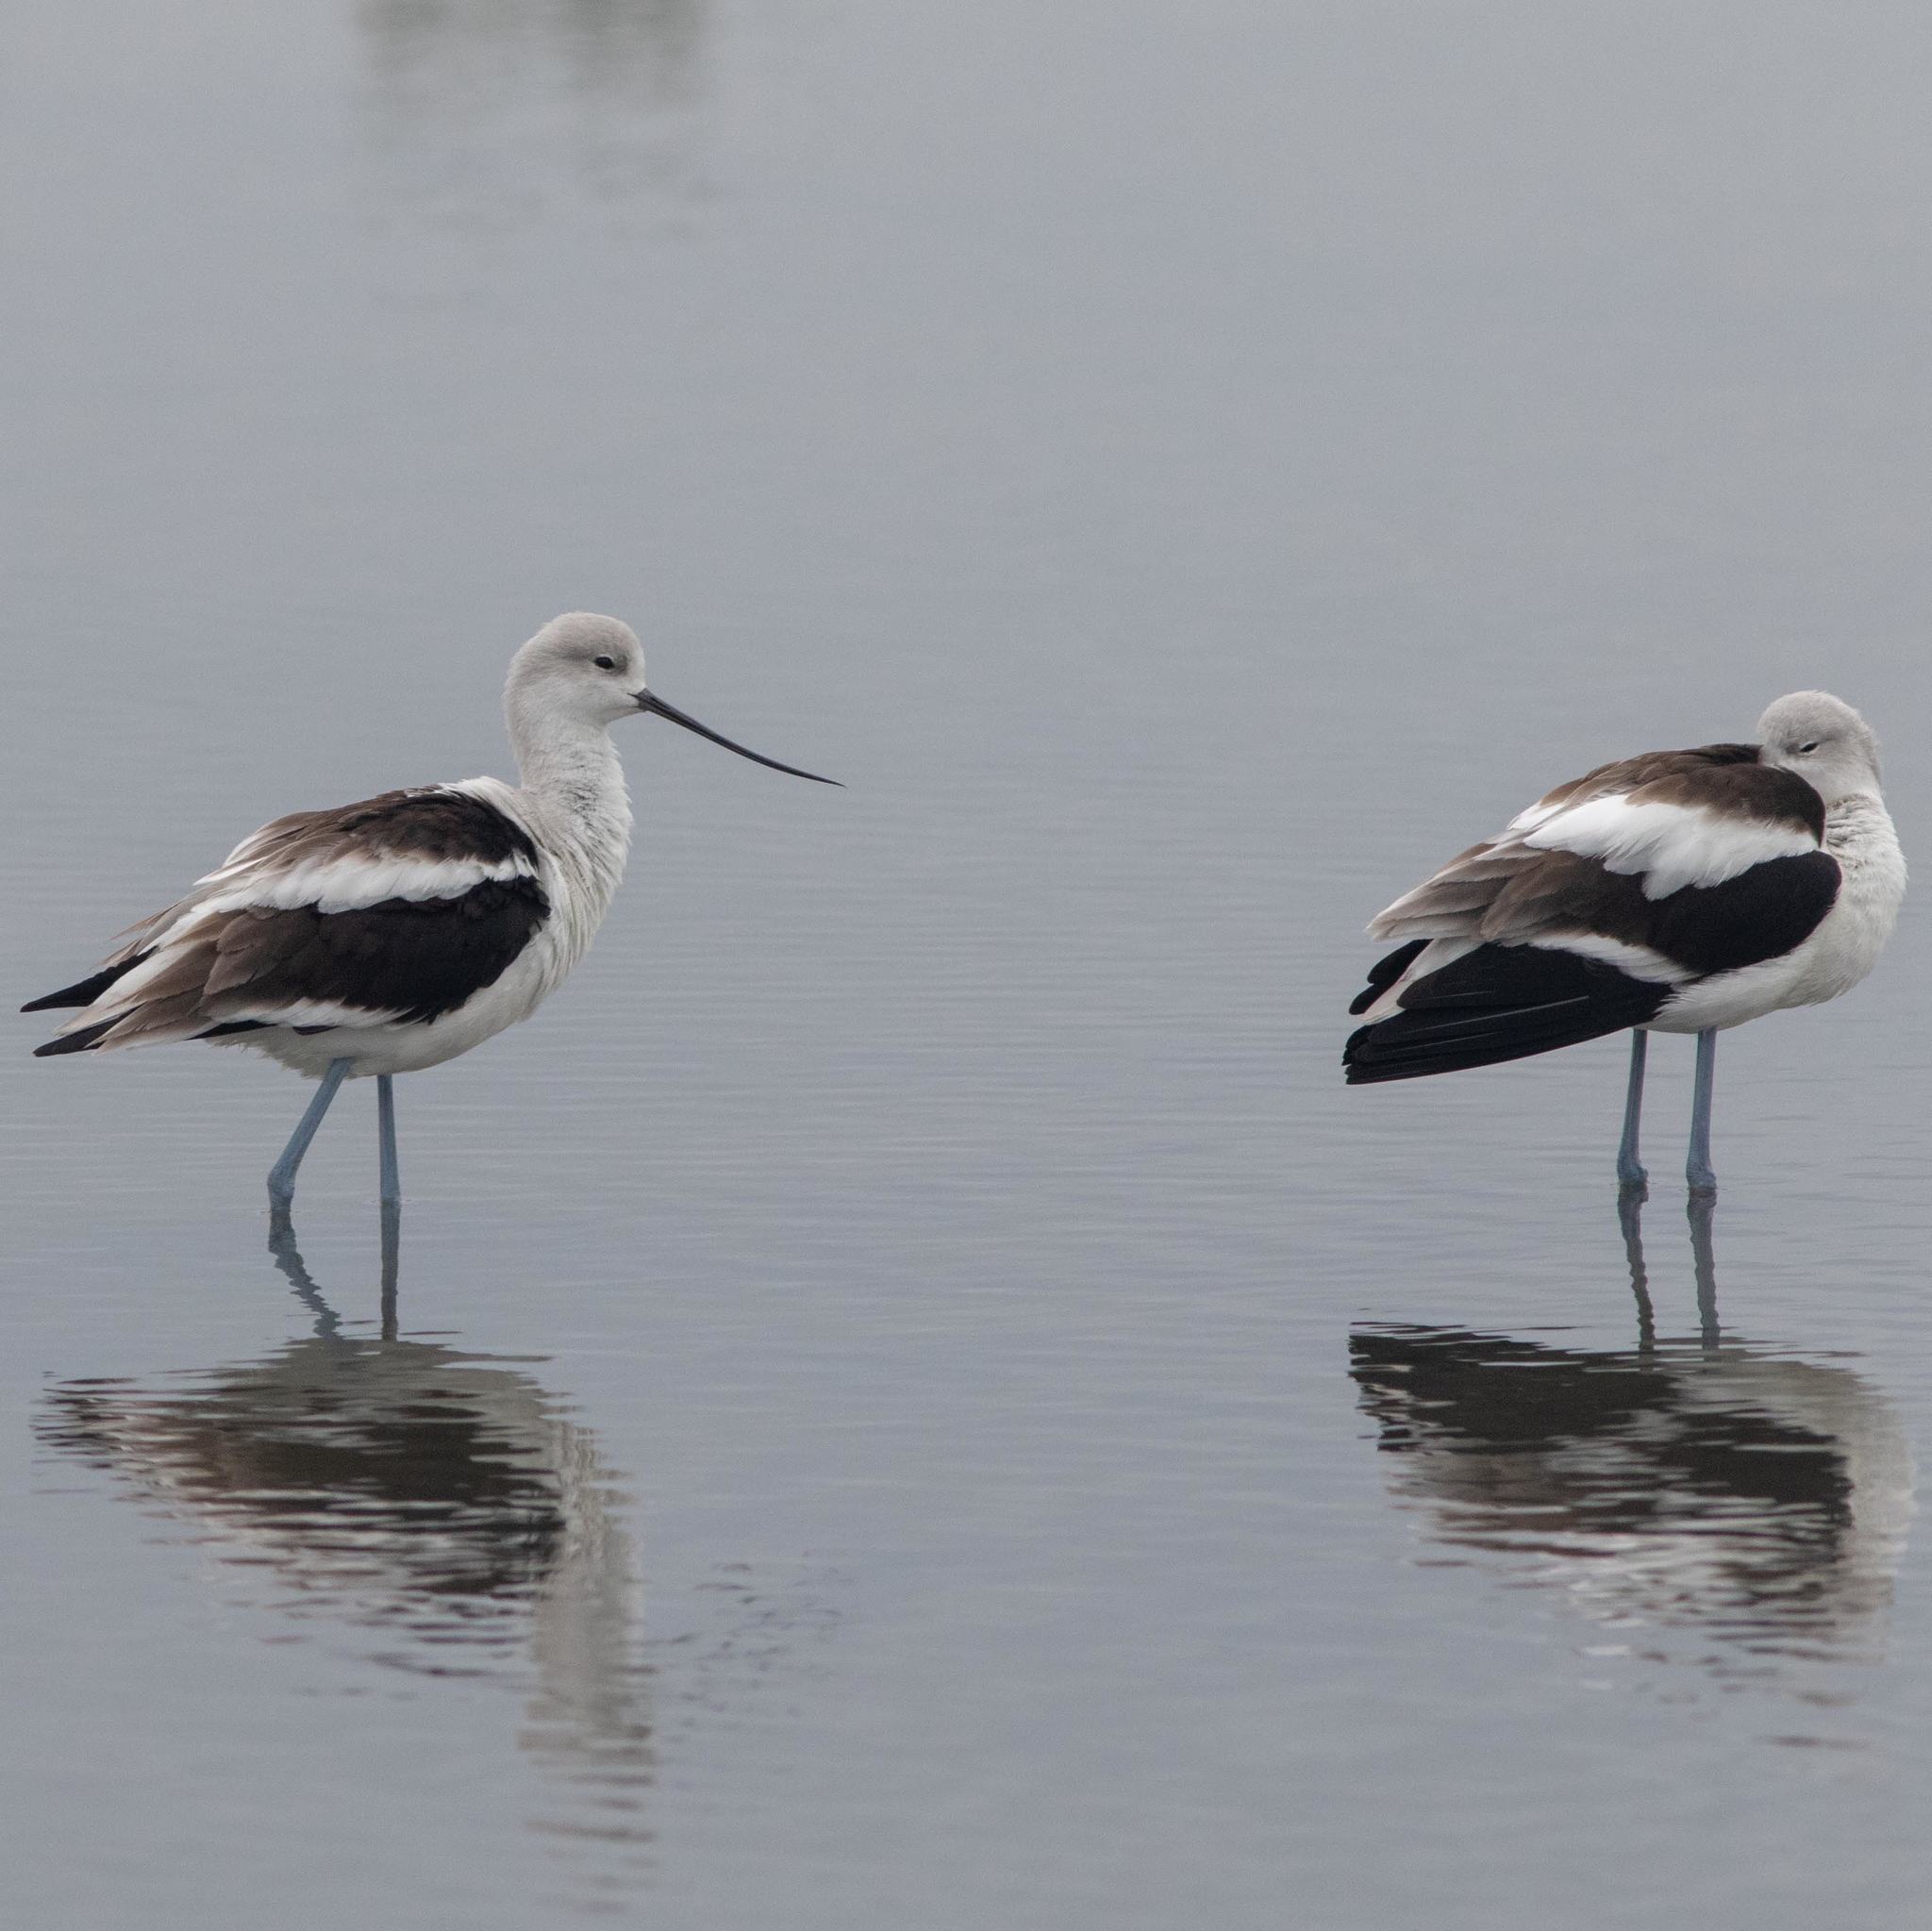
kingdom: Animalia
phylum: Chordata
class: Aves
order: Charadriiformes
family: Recurvirostridae
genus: Recurvirostra
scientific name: Recurvirostra americana
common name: American avocet
